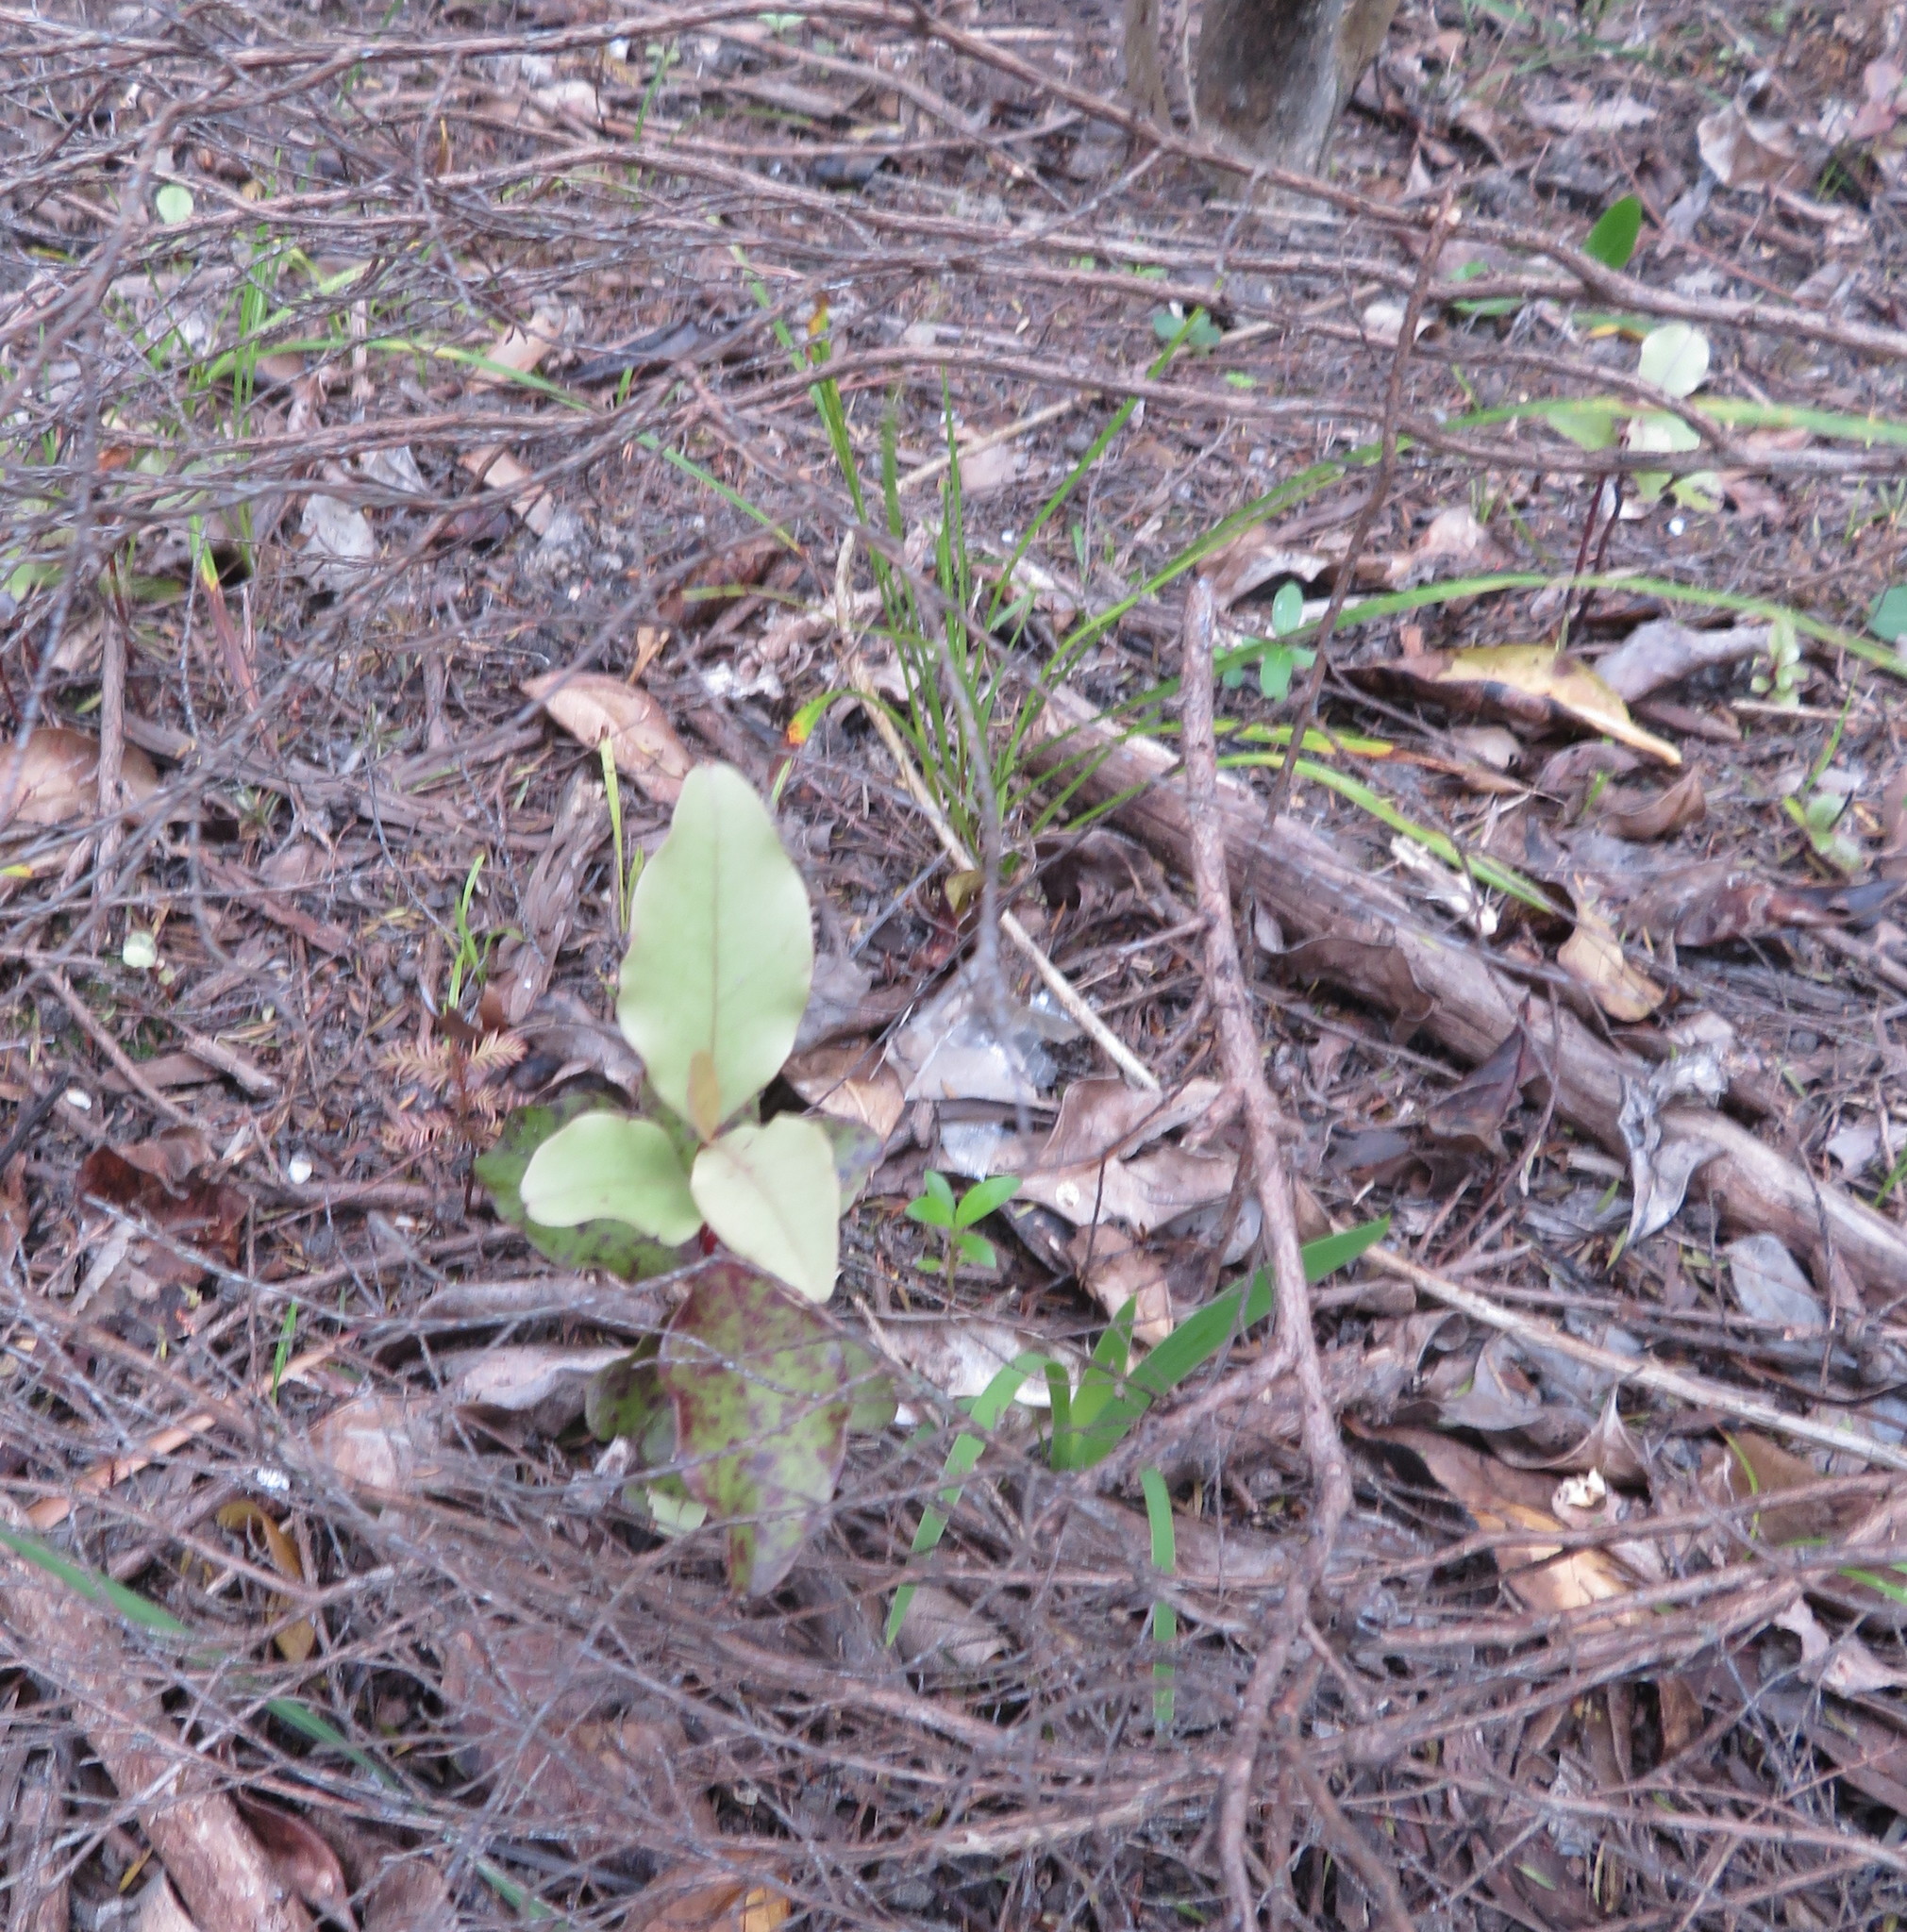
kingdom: Plantae
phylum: Tracheophyta
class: Magnoliopsida
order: Ericales
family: Primulaceae
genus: Myrsine
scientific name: Myrsine australis
